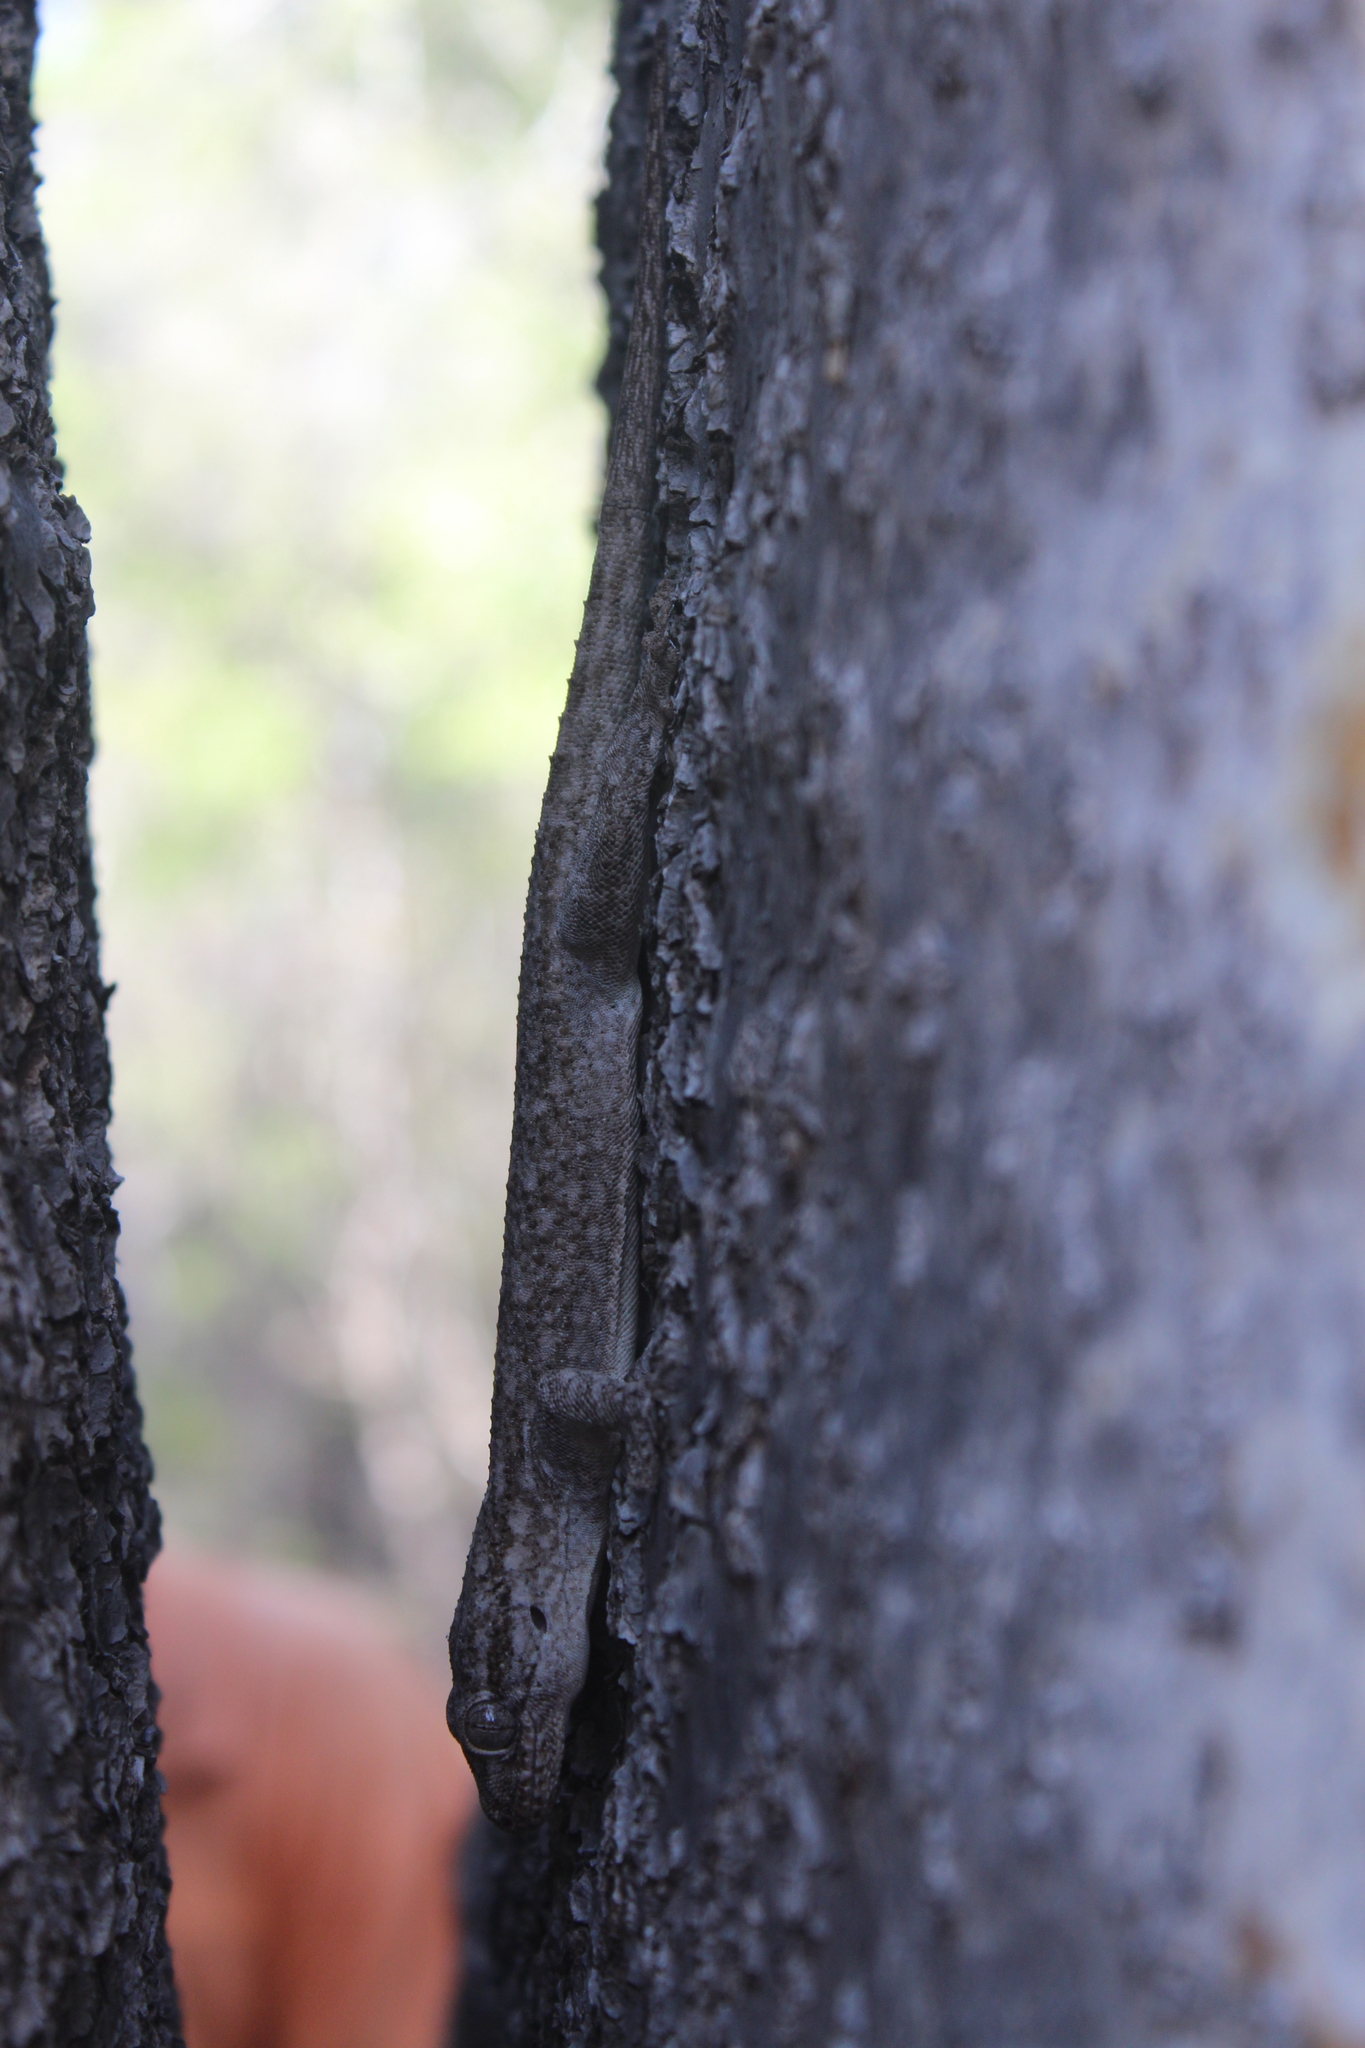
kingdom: Animalia
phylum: Chordata
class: Squamata
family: Gekkonidae
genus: Blaesodactylus
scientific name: Blaesodactylus sakalava
